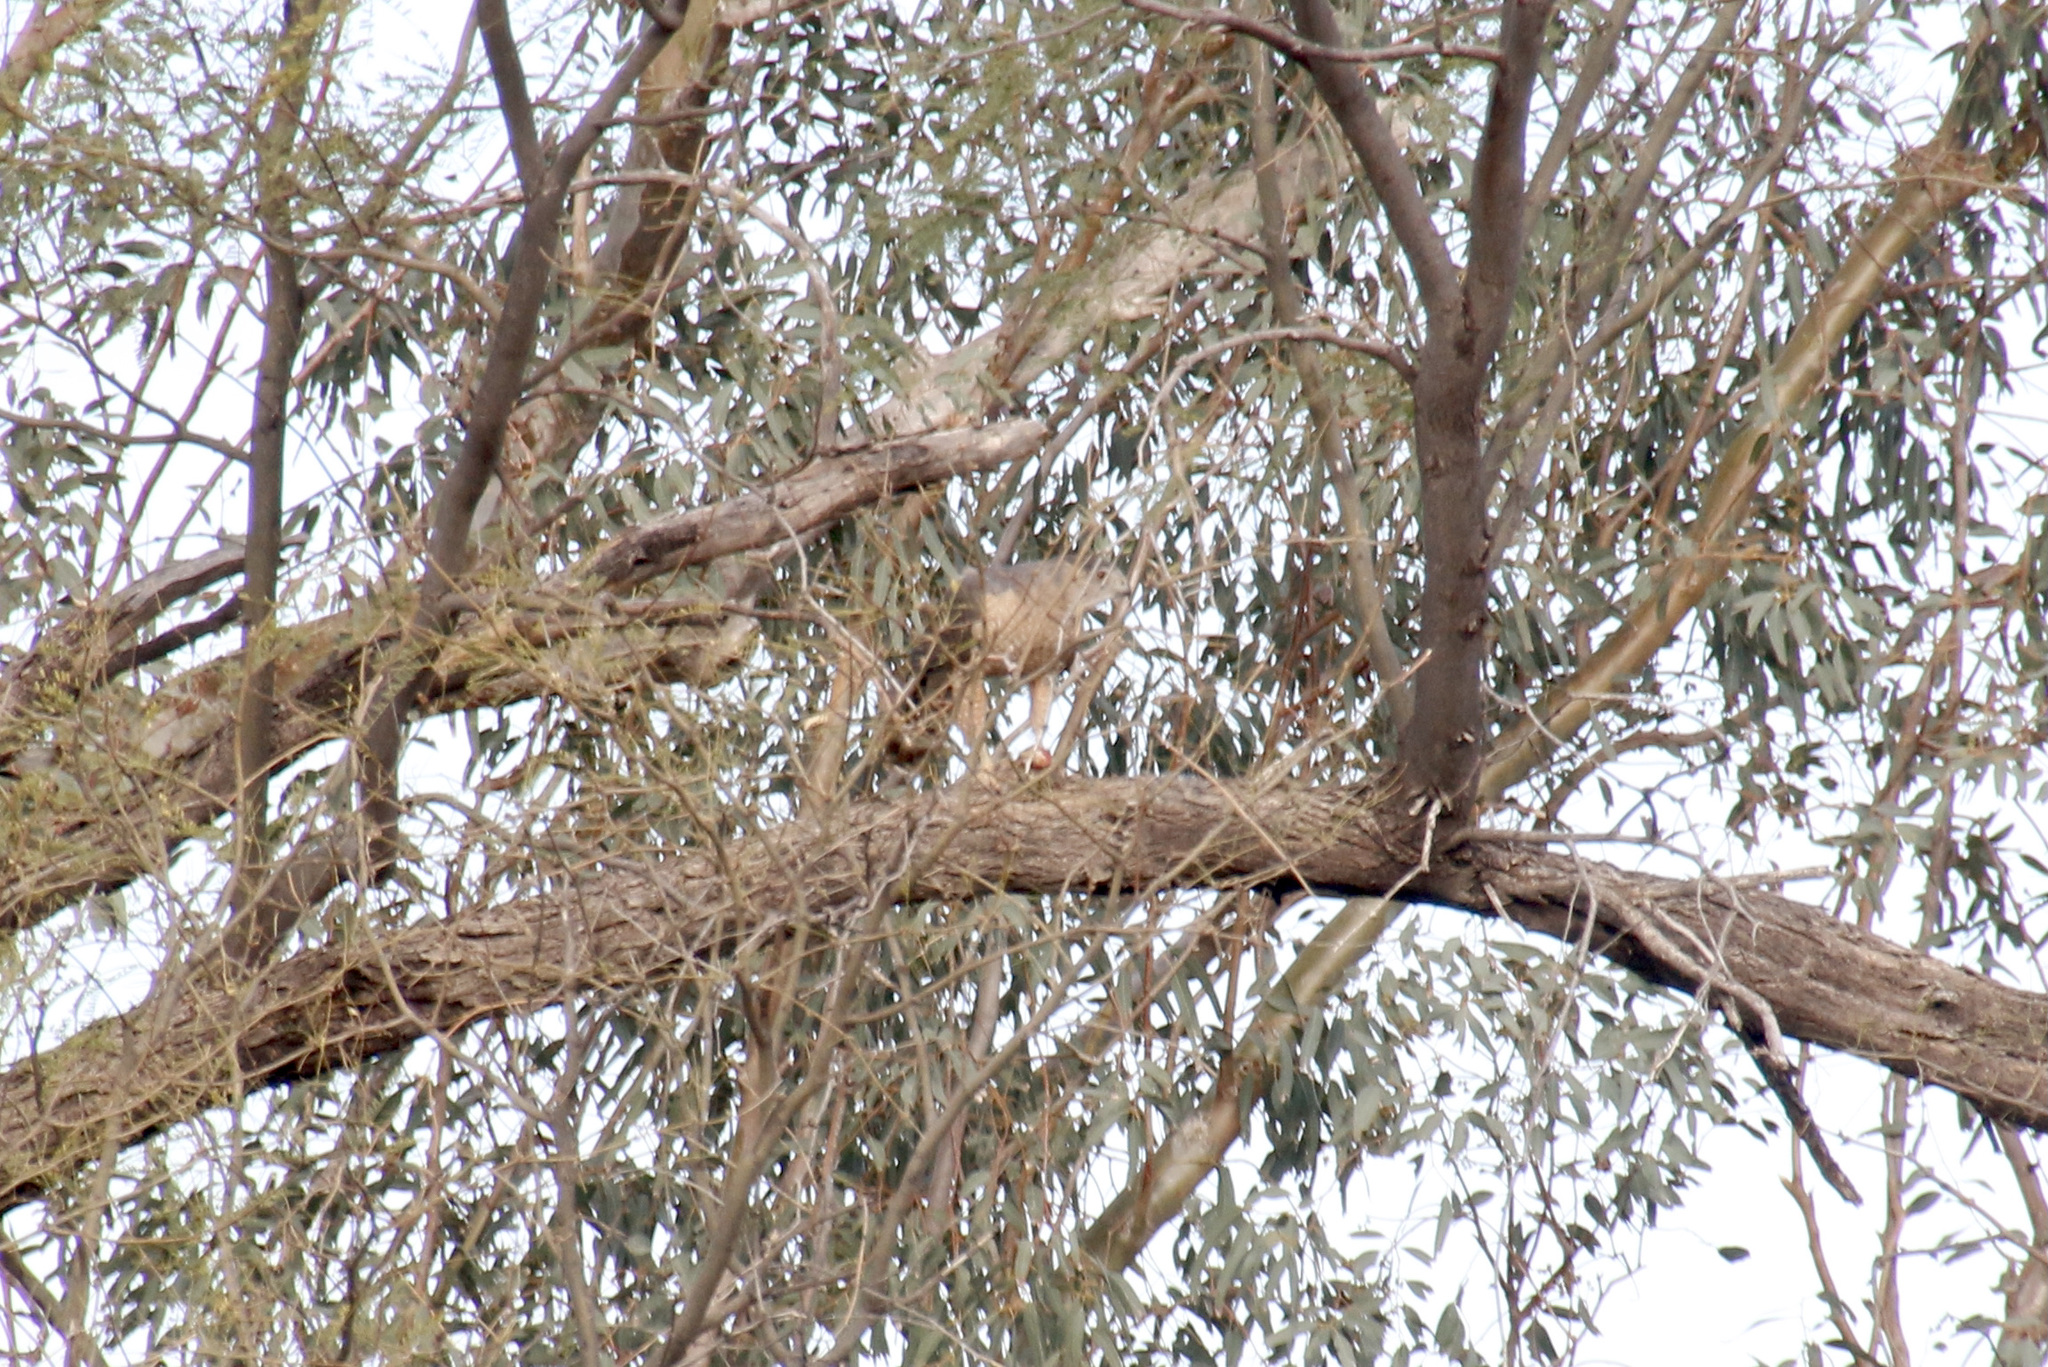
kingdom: Animalia
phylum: Chordata
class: Aves
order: Accipitriformes
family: Accipitridae
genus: Accipiter
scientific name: Accipiter cooperii
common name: Cooper's hawk
